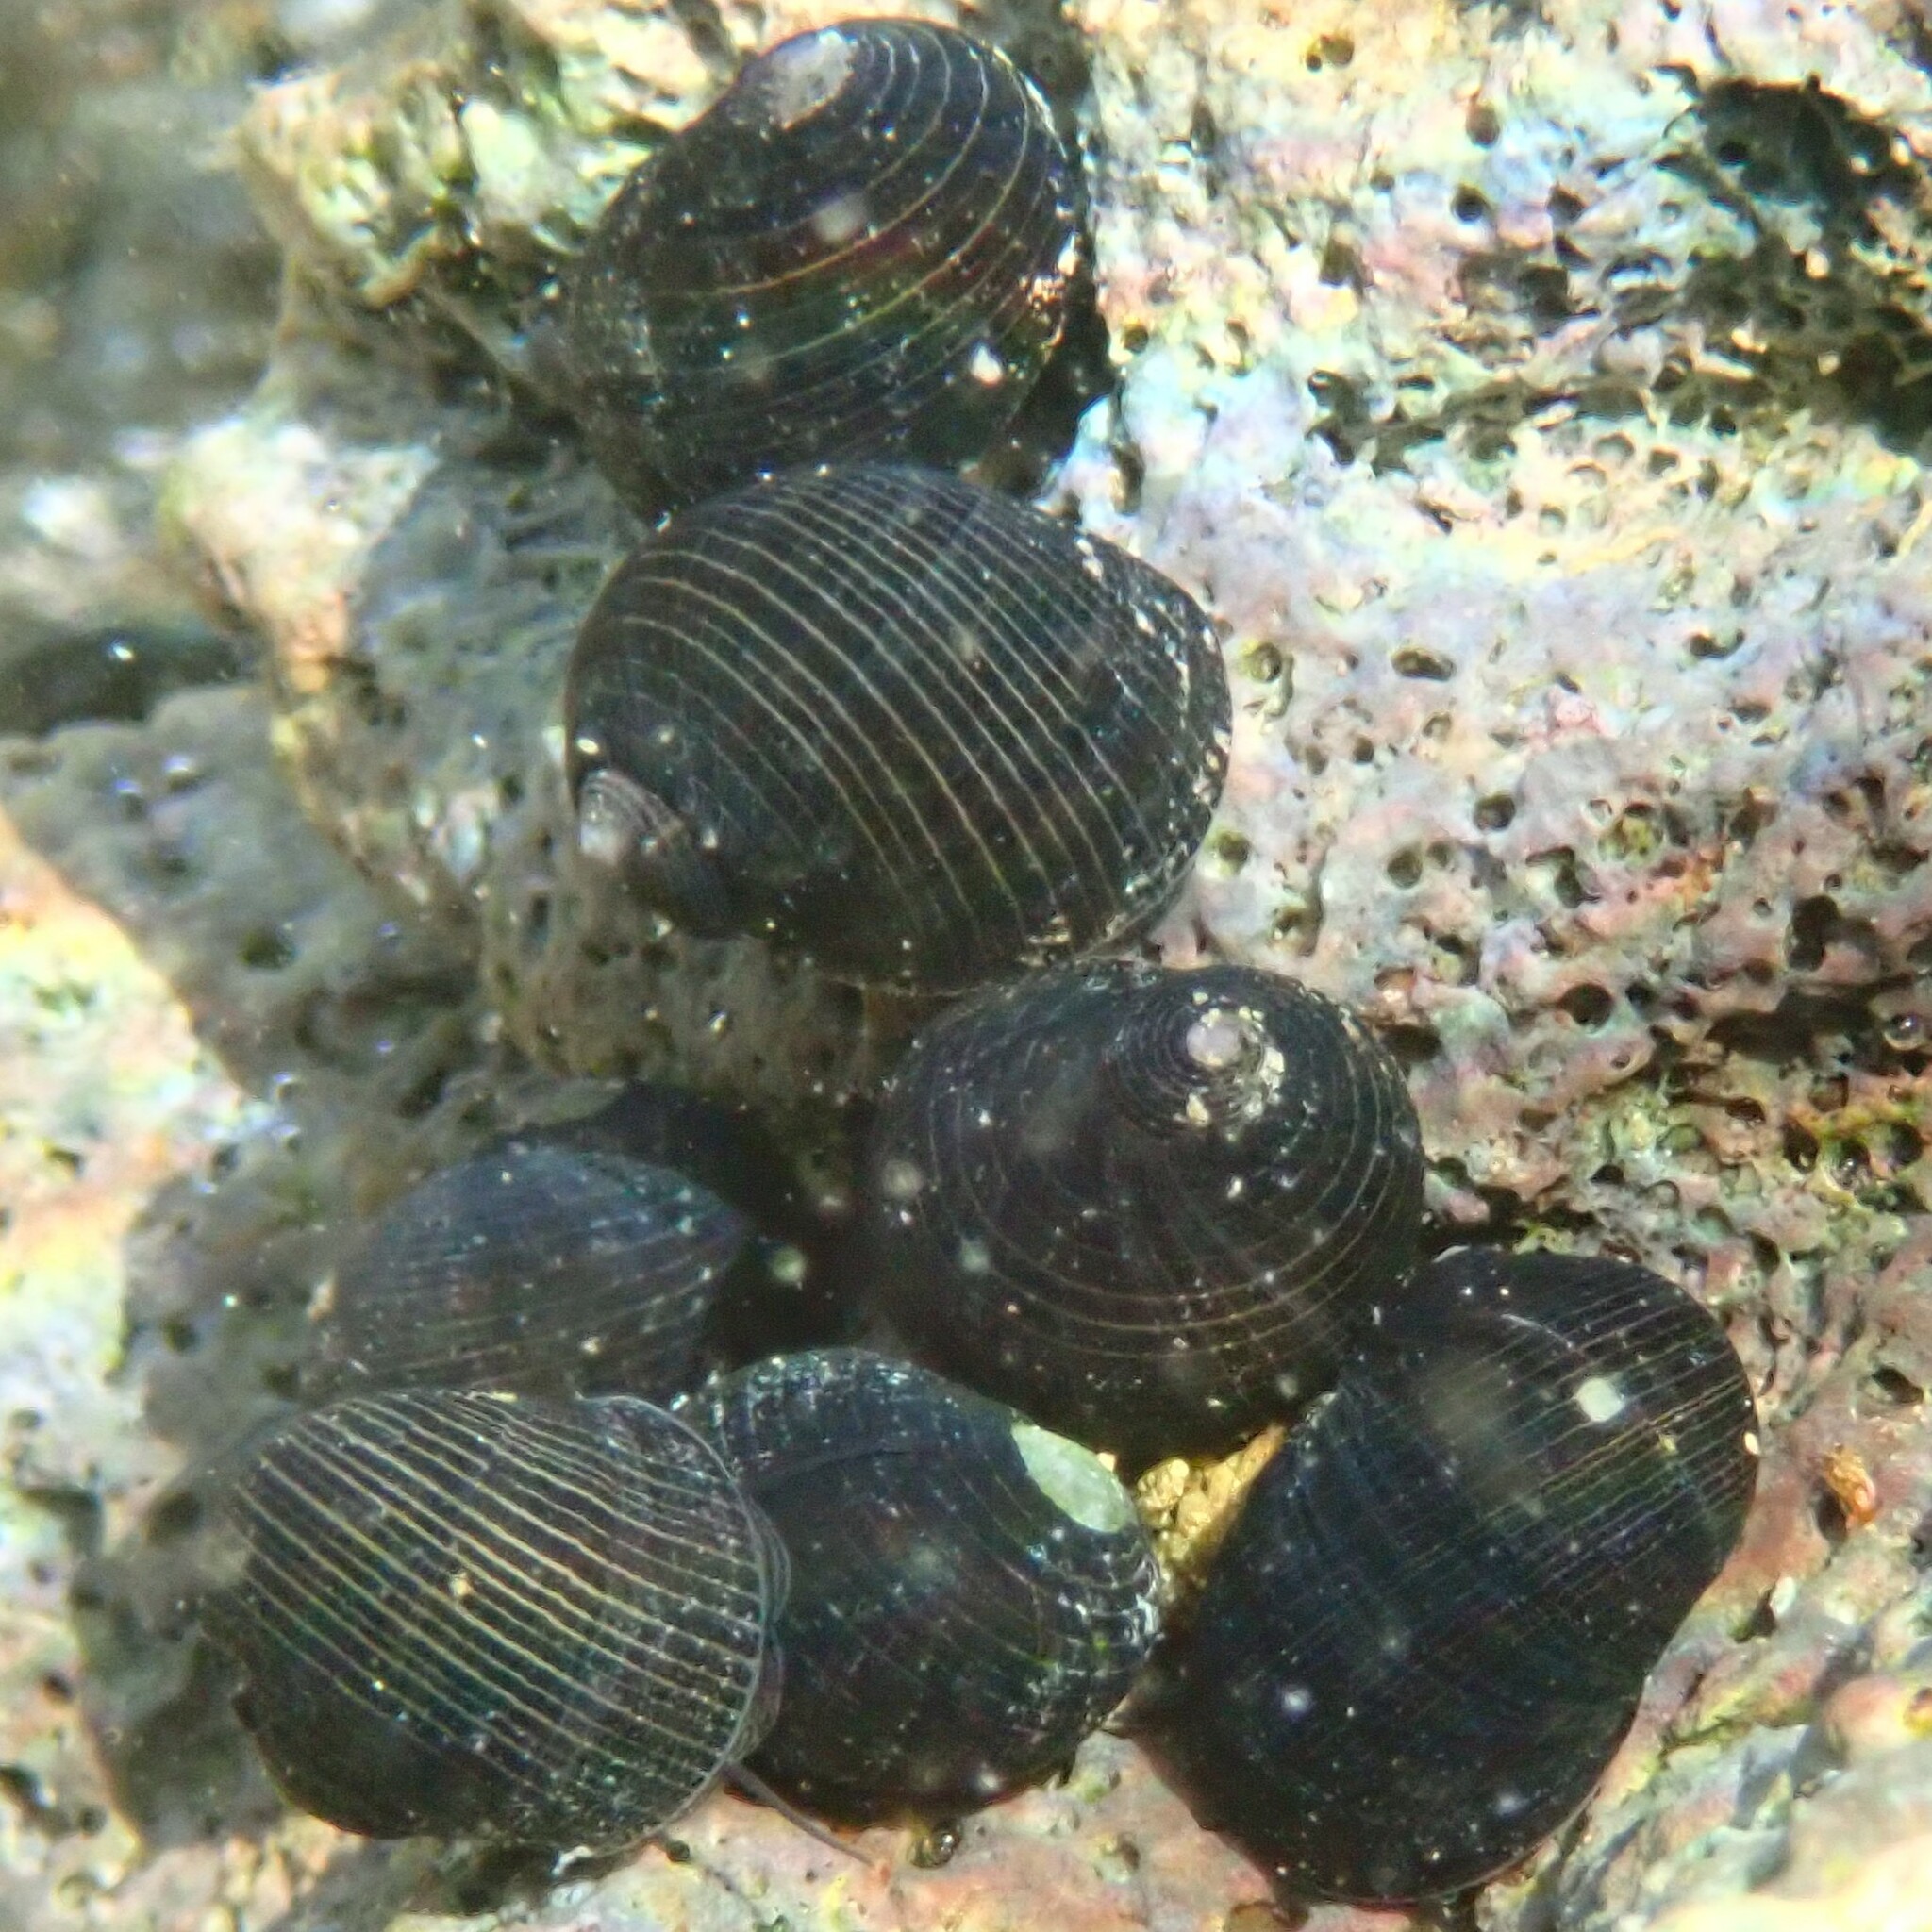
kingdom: Animalia
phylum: Mollusca
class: Gastropoda
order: Cycloneritida
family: Neritidae
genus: Nerita
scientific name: Nerita picea
